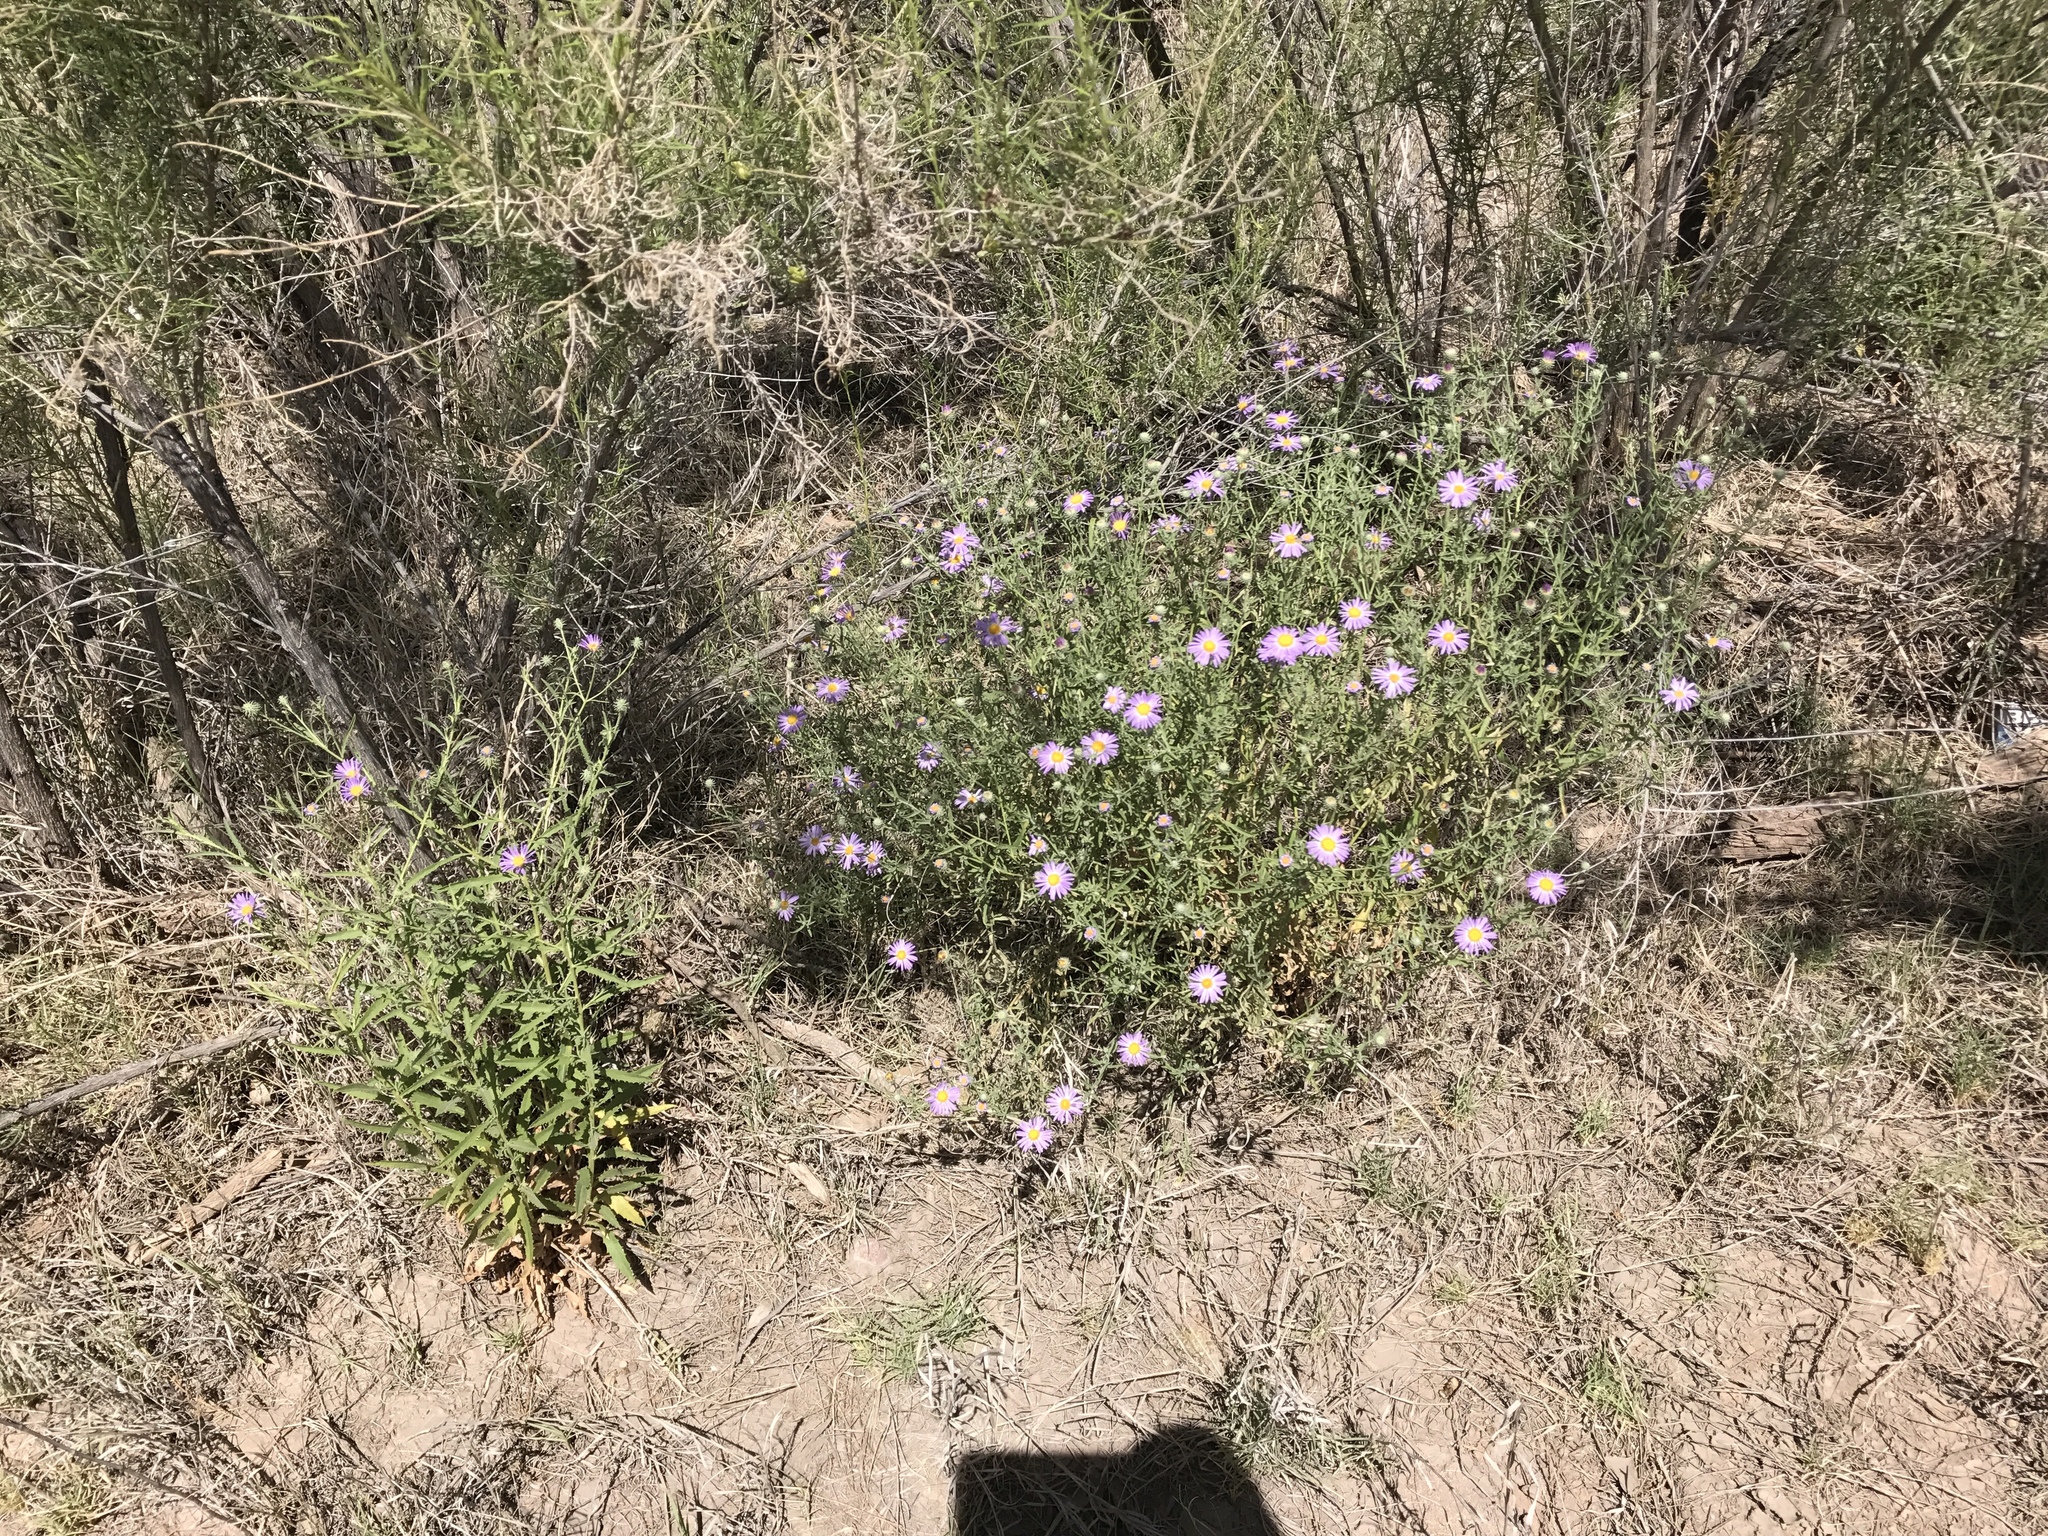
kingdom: Plantae
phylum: Tracheophyta
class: Magnoliopsida
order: Asterales
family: Asteraceae
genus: Machaeranthera
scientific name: Machaeranthera tanacetifolia
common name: Tansy-aster
